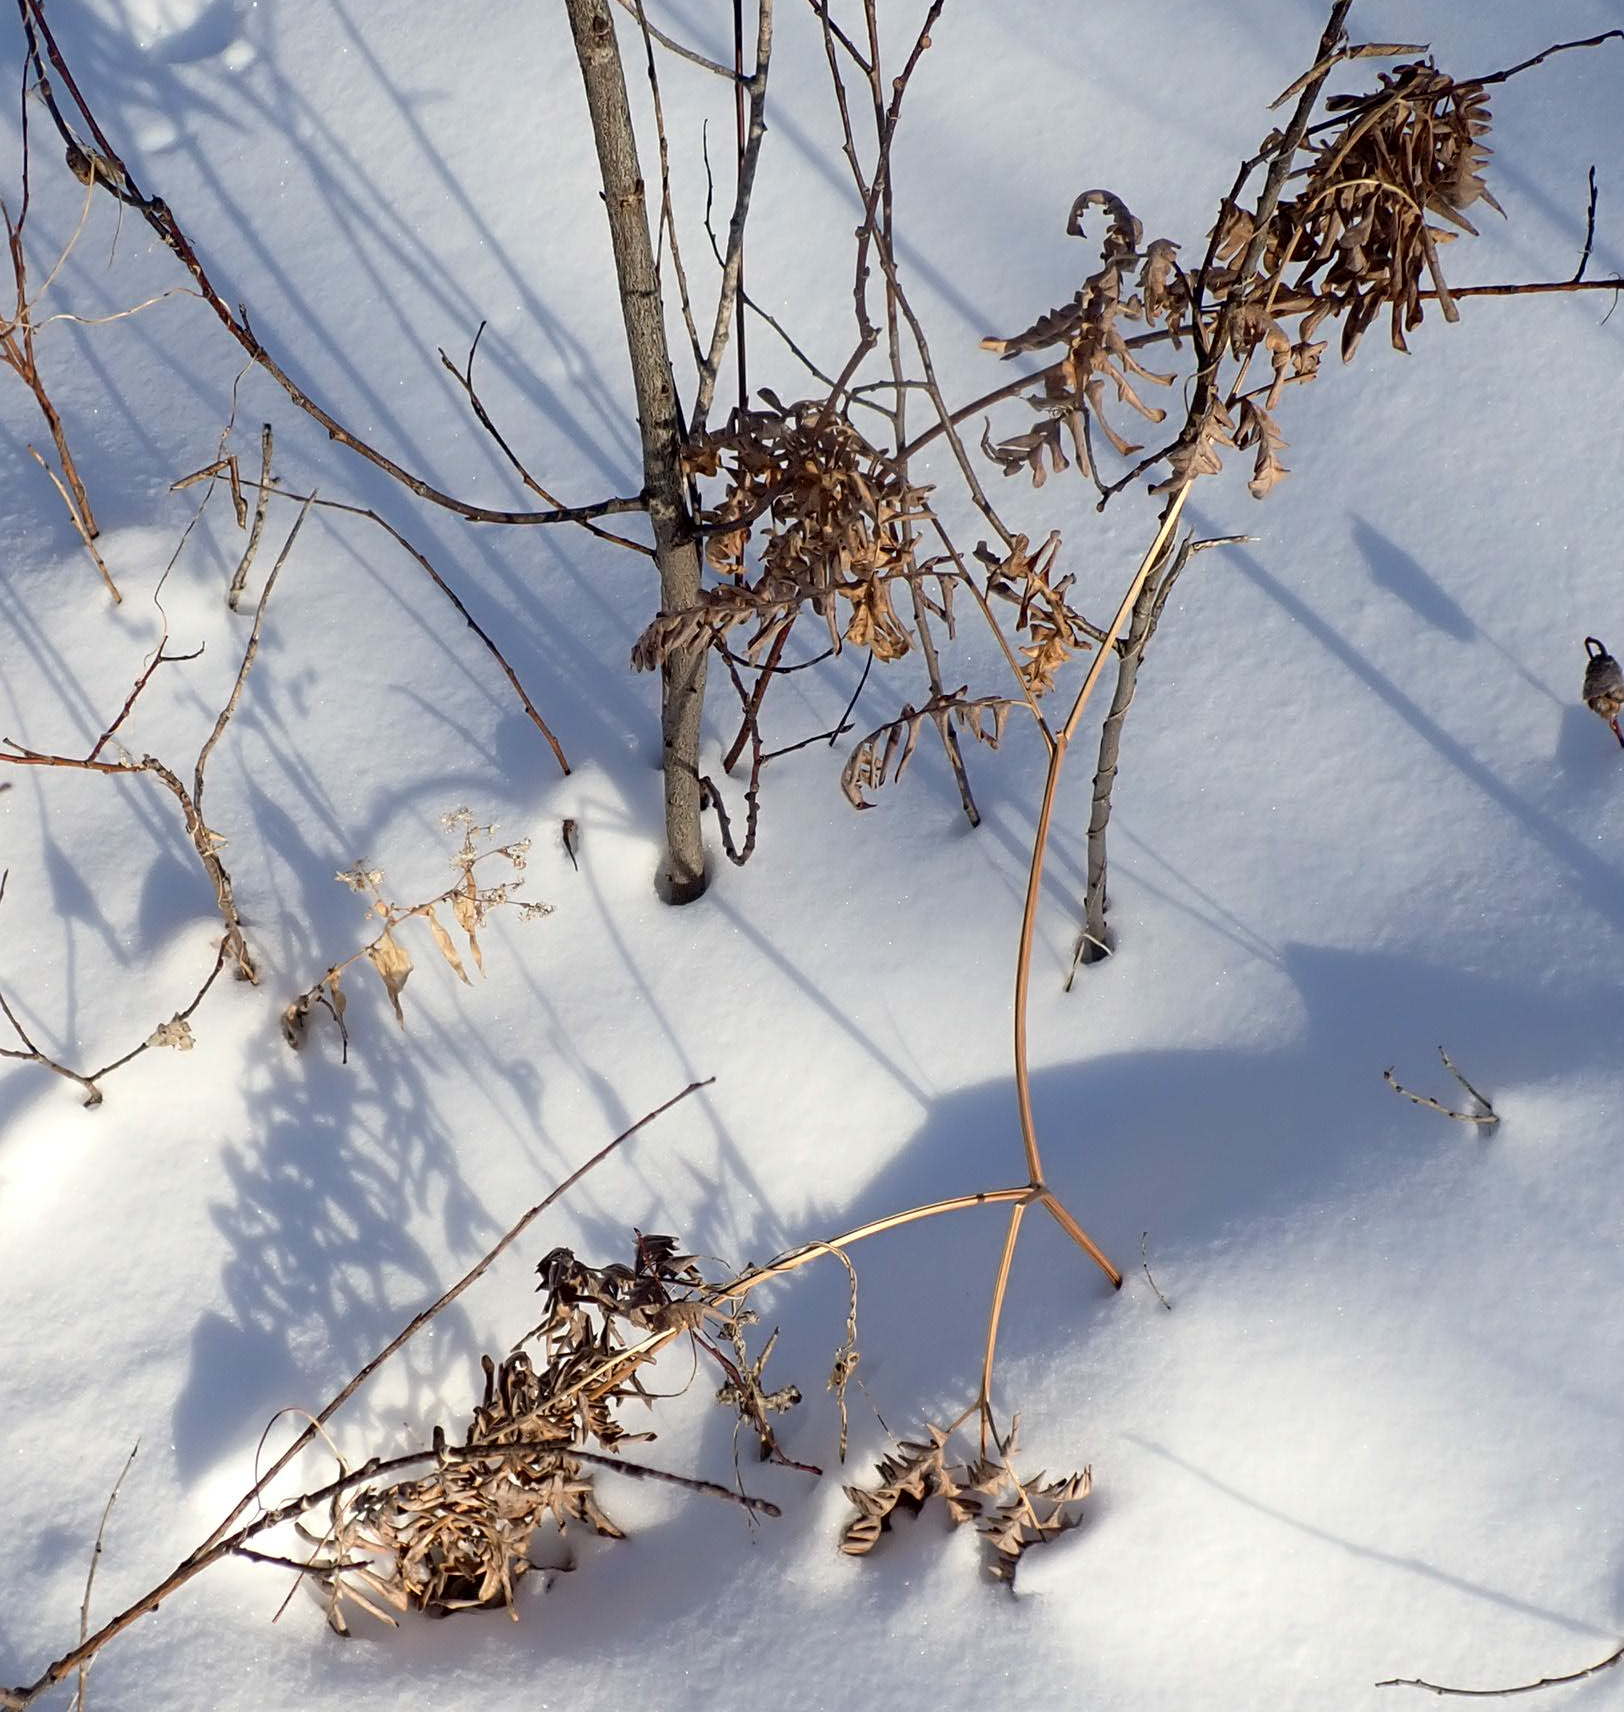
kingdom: Plantae
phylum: Tracheophyta
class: Polypodiopsida
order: Polypodiales
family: Dennstaedtiaceae
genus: Pteridium
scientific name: Pteridium aquilinum
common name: Bracken
